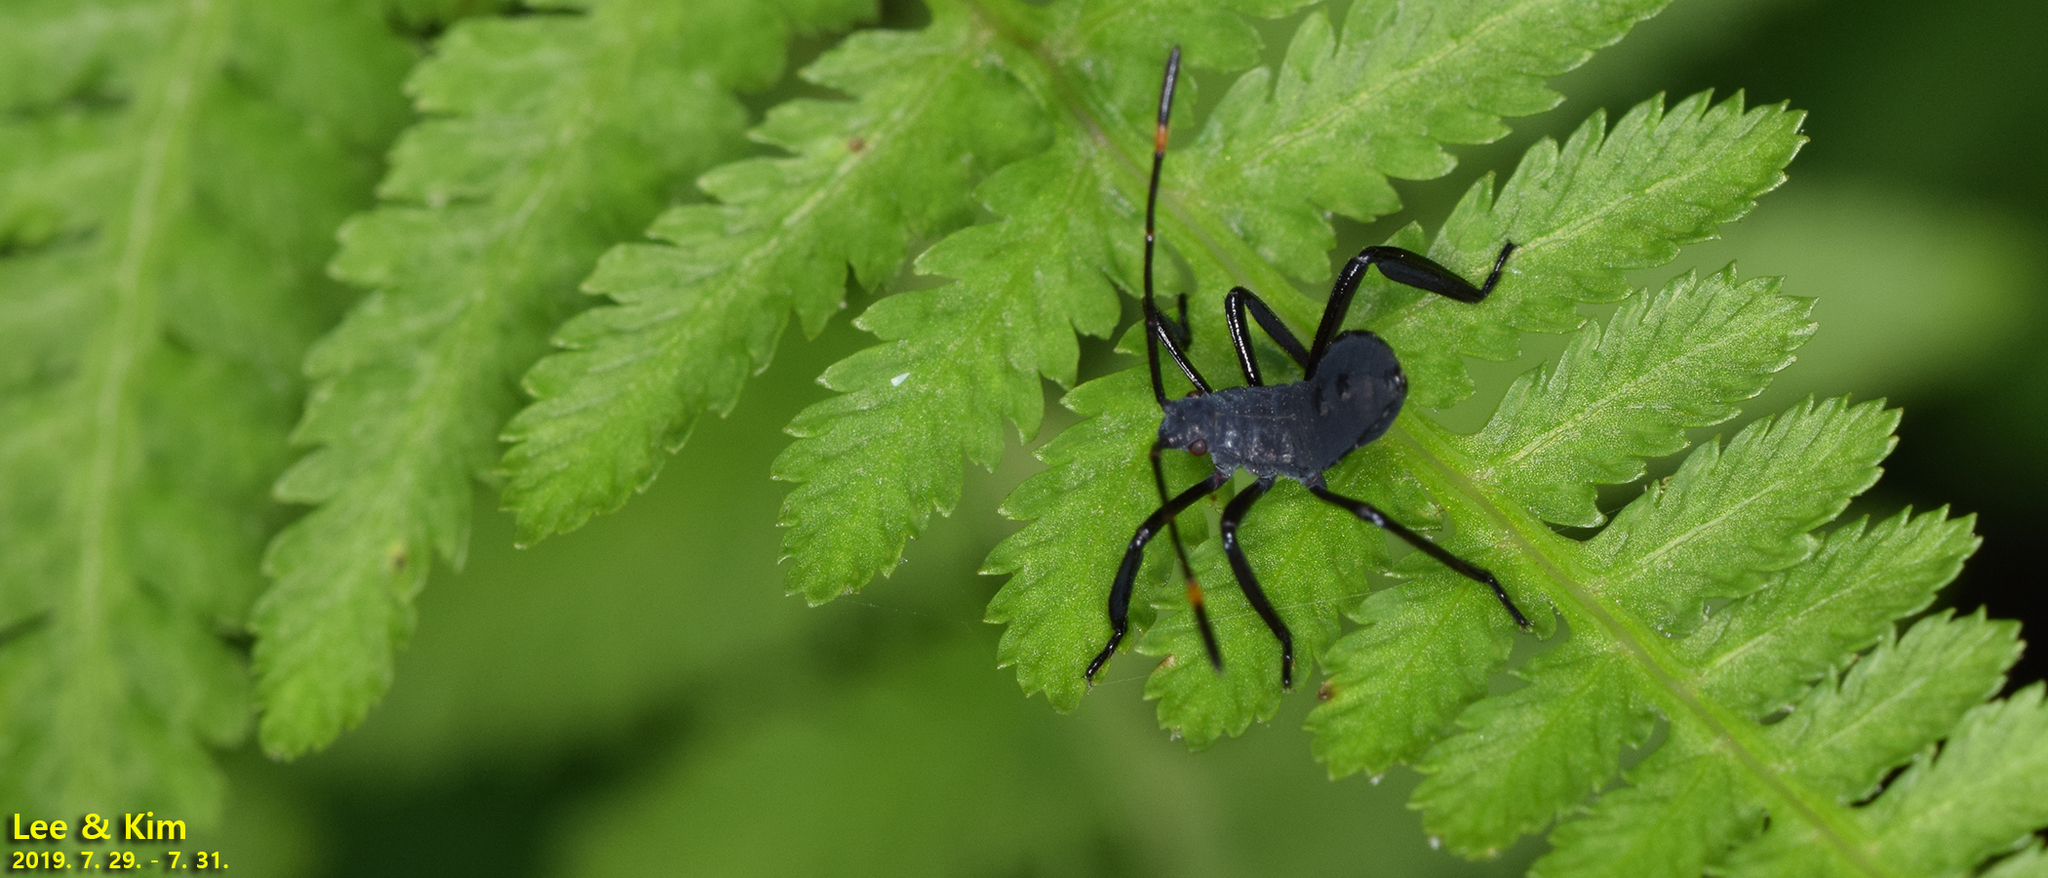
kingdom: Animalia
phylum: Arthropoda
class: Insecta
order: Hemiptera
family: Coreidae
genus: Anoplocnemis
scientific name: Anoplocnemis dallasi
